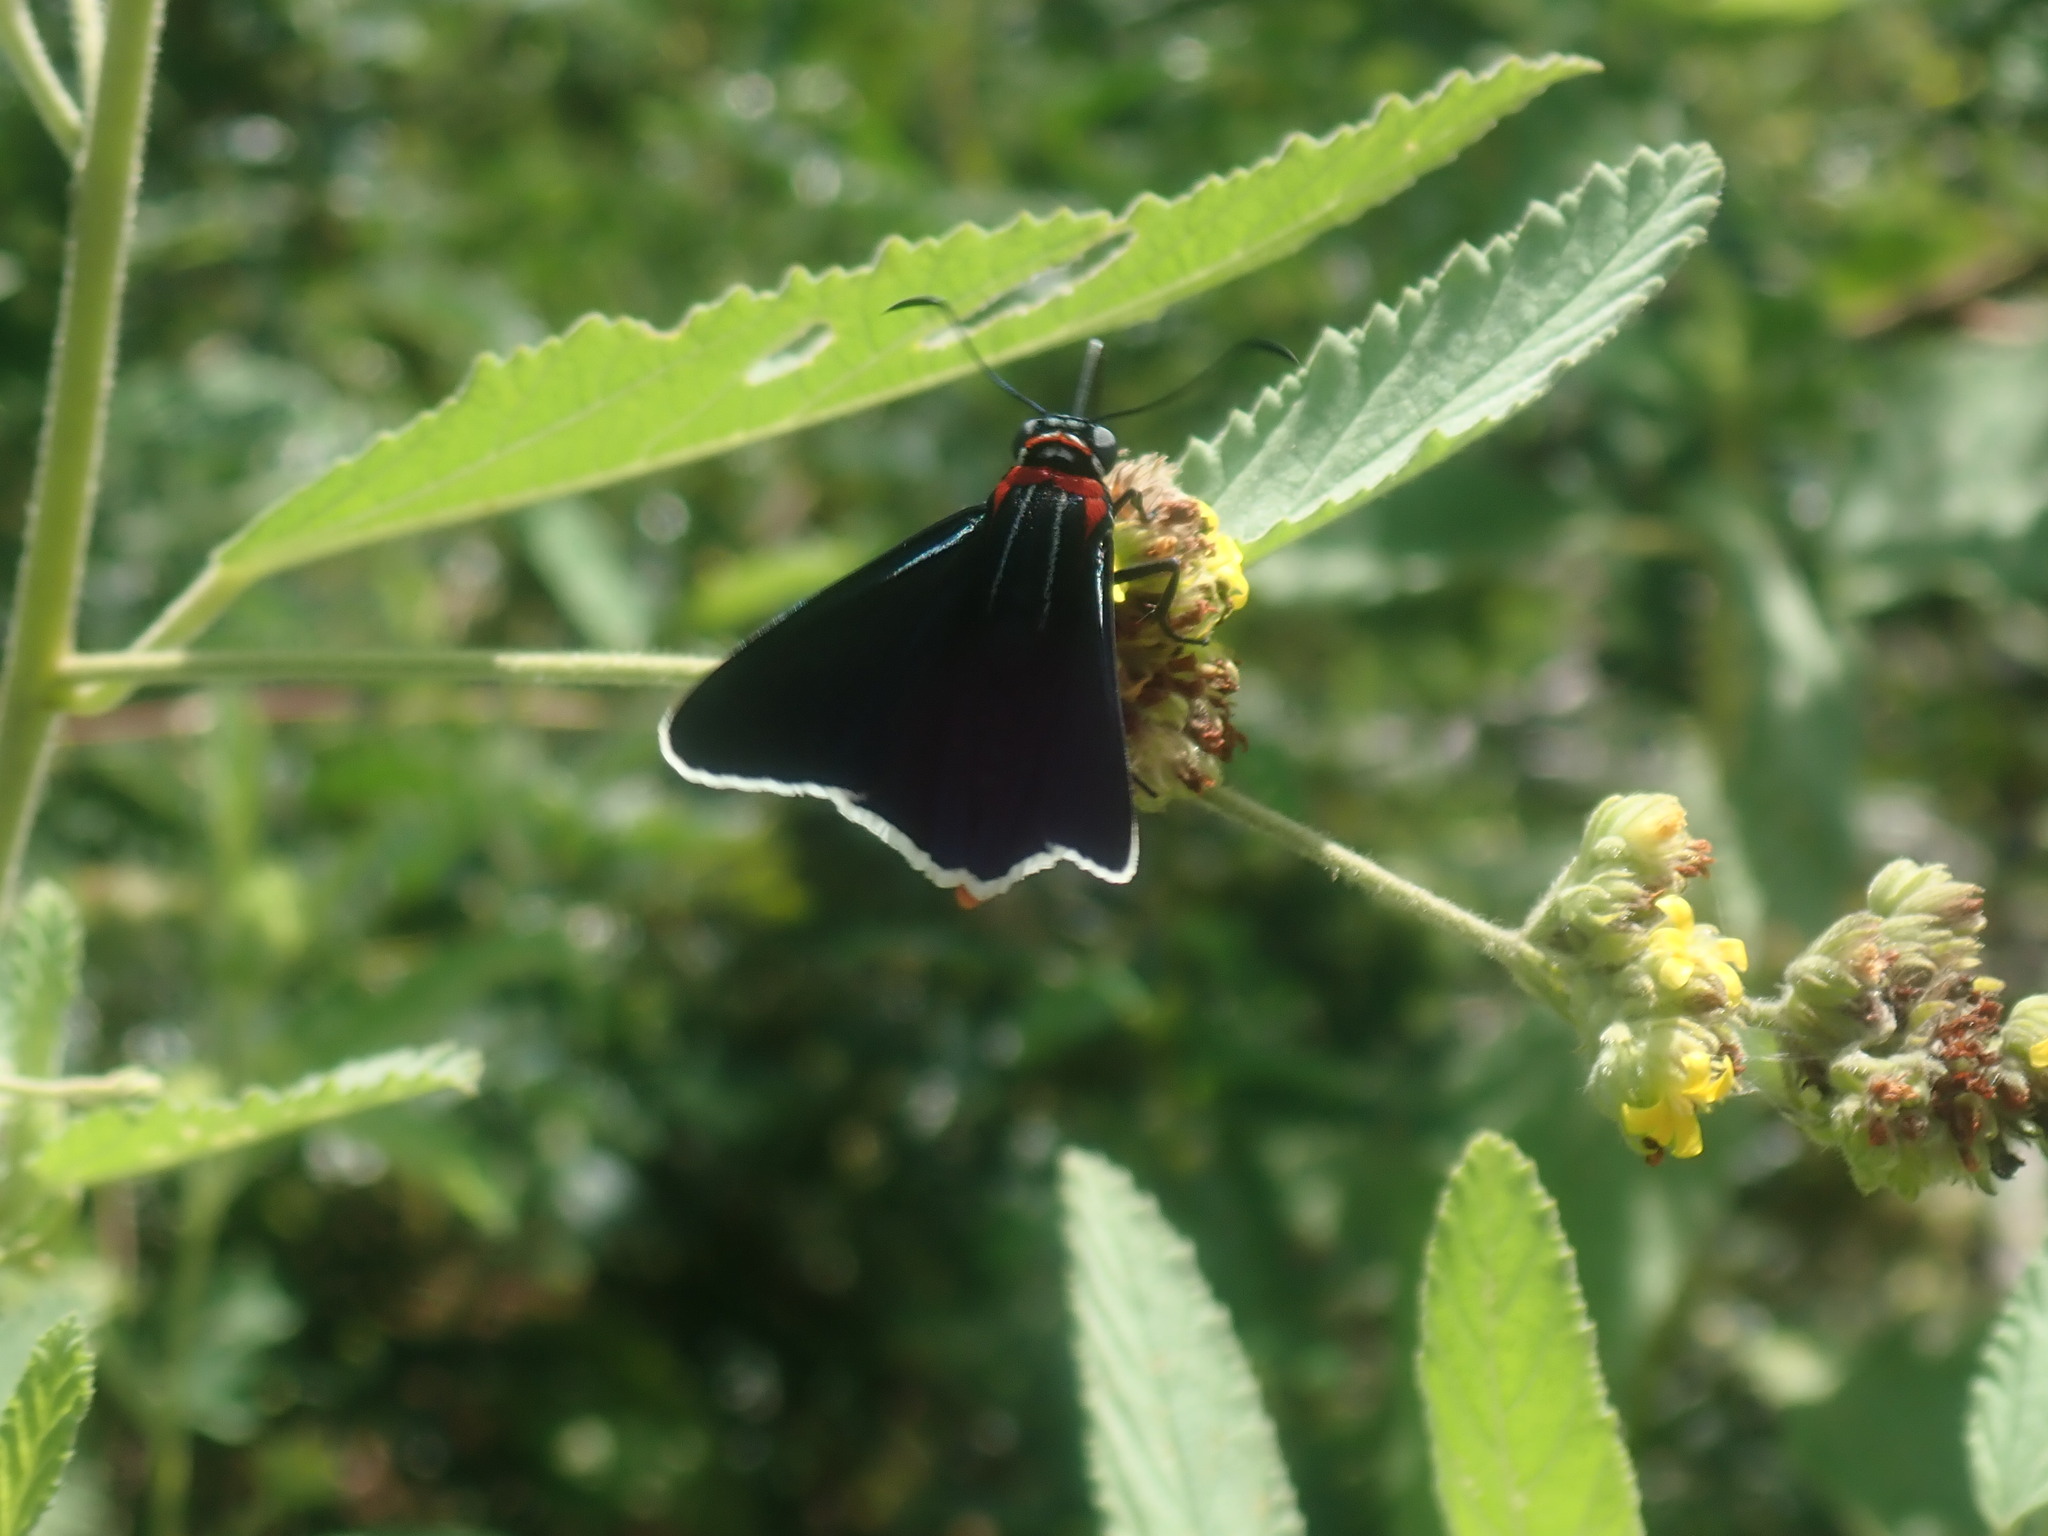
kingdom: Animalia
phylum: Arthropoda
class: Insecta
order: Lepidoptera
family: Hesperiidae
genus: Elbella
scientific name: Elbella scylla
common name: Scylla firetip
